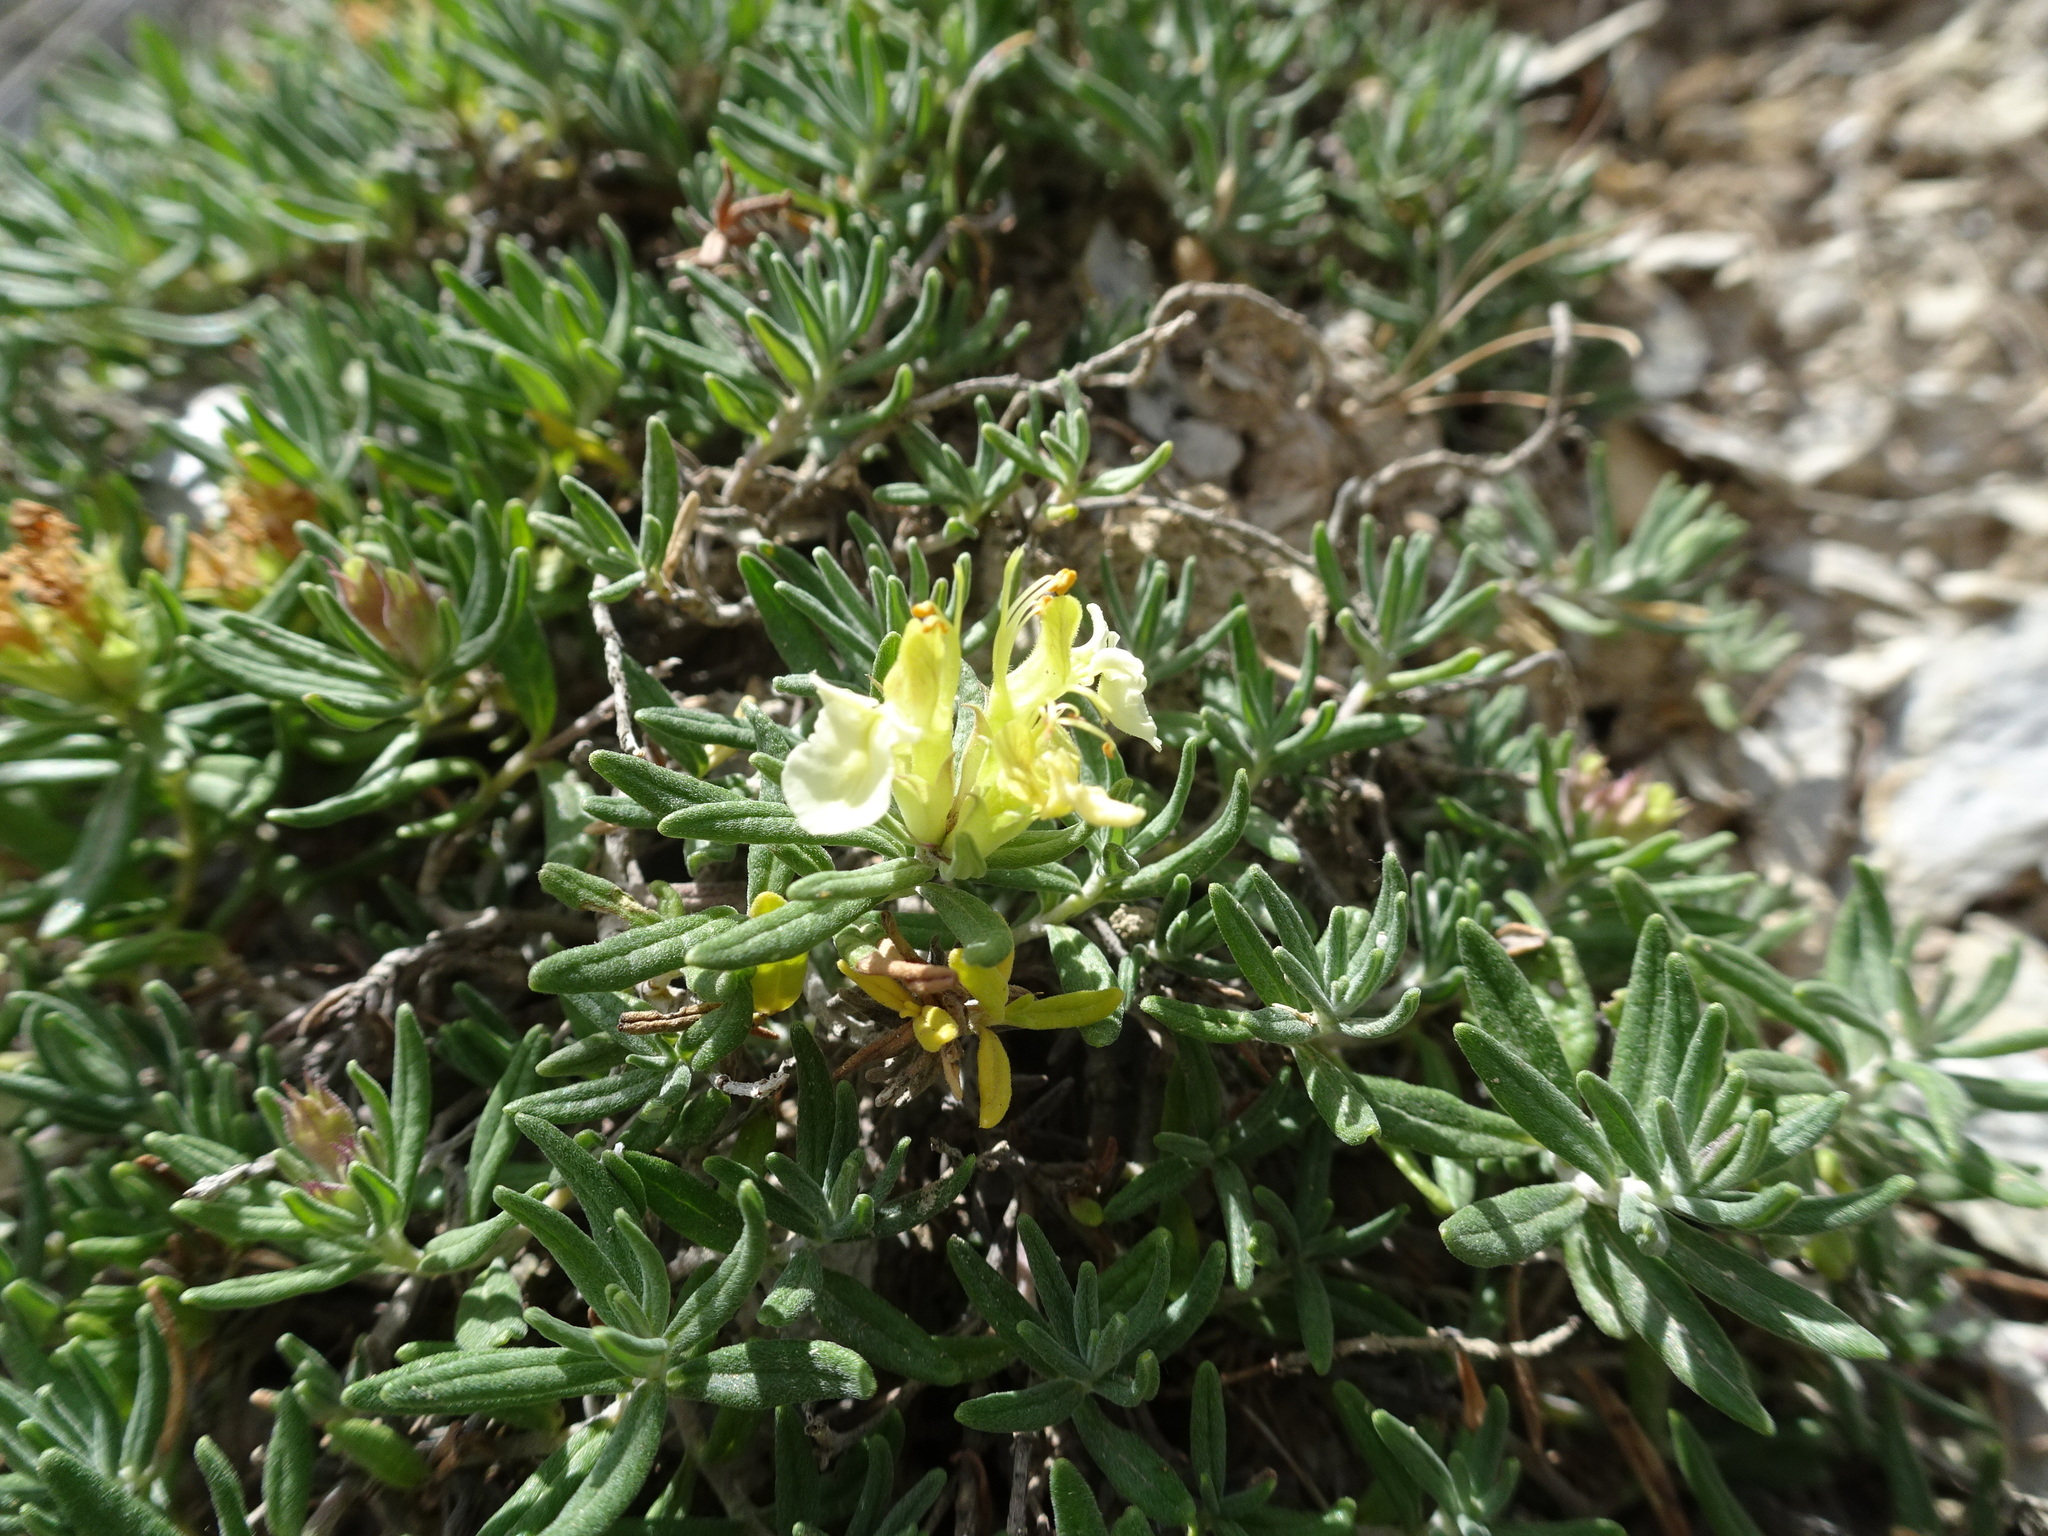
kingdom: Plantae
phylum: Tracheophyta
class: Magnoliopsida
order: Lamiales
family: Lamiaceae
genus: Teucrium
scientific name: Teucrium montanum
